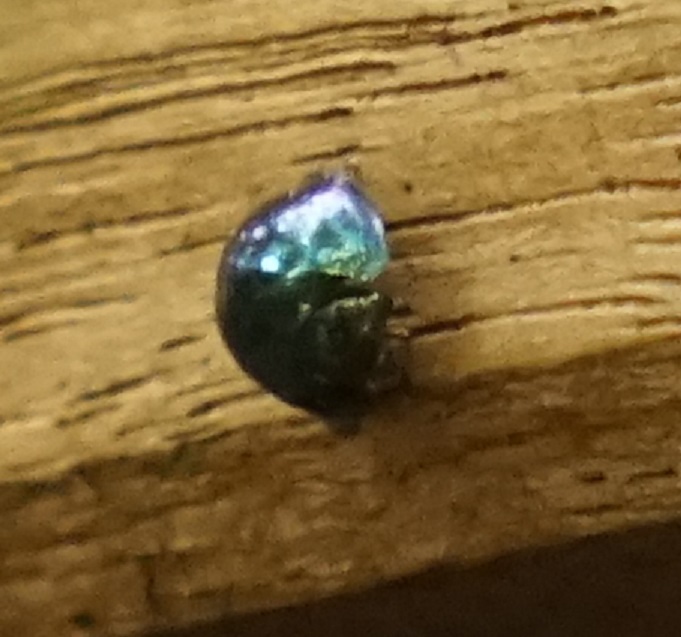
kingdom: Animalia
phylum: Arthropoda
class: Insecta
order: Coleoptera
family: Coccinellidae
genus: Halmus
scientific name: Halmus chalybeus
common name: Steel blue ladybird beetle
